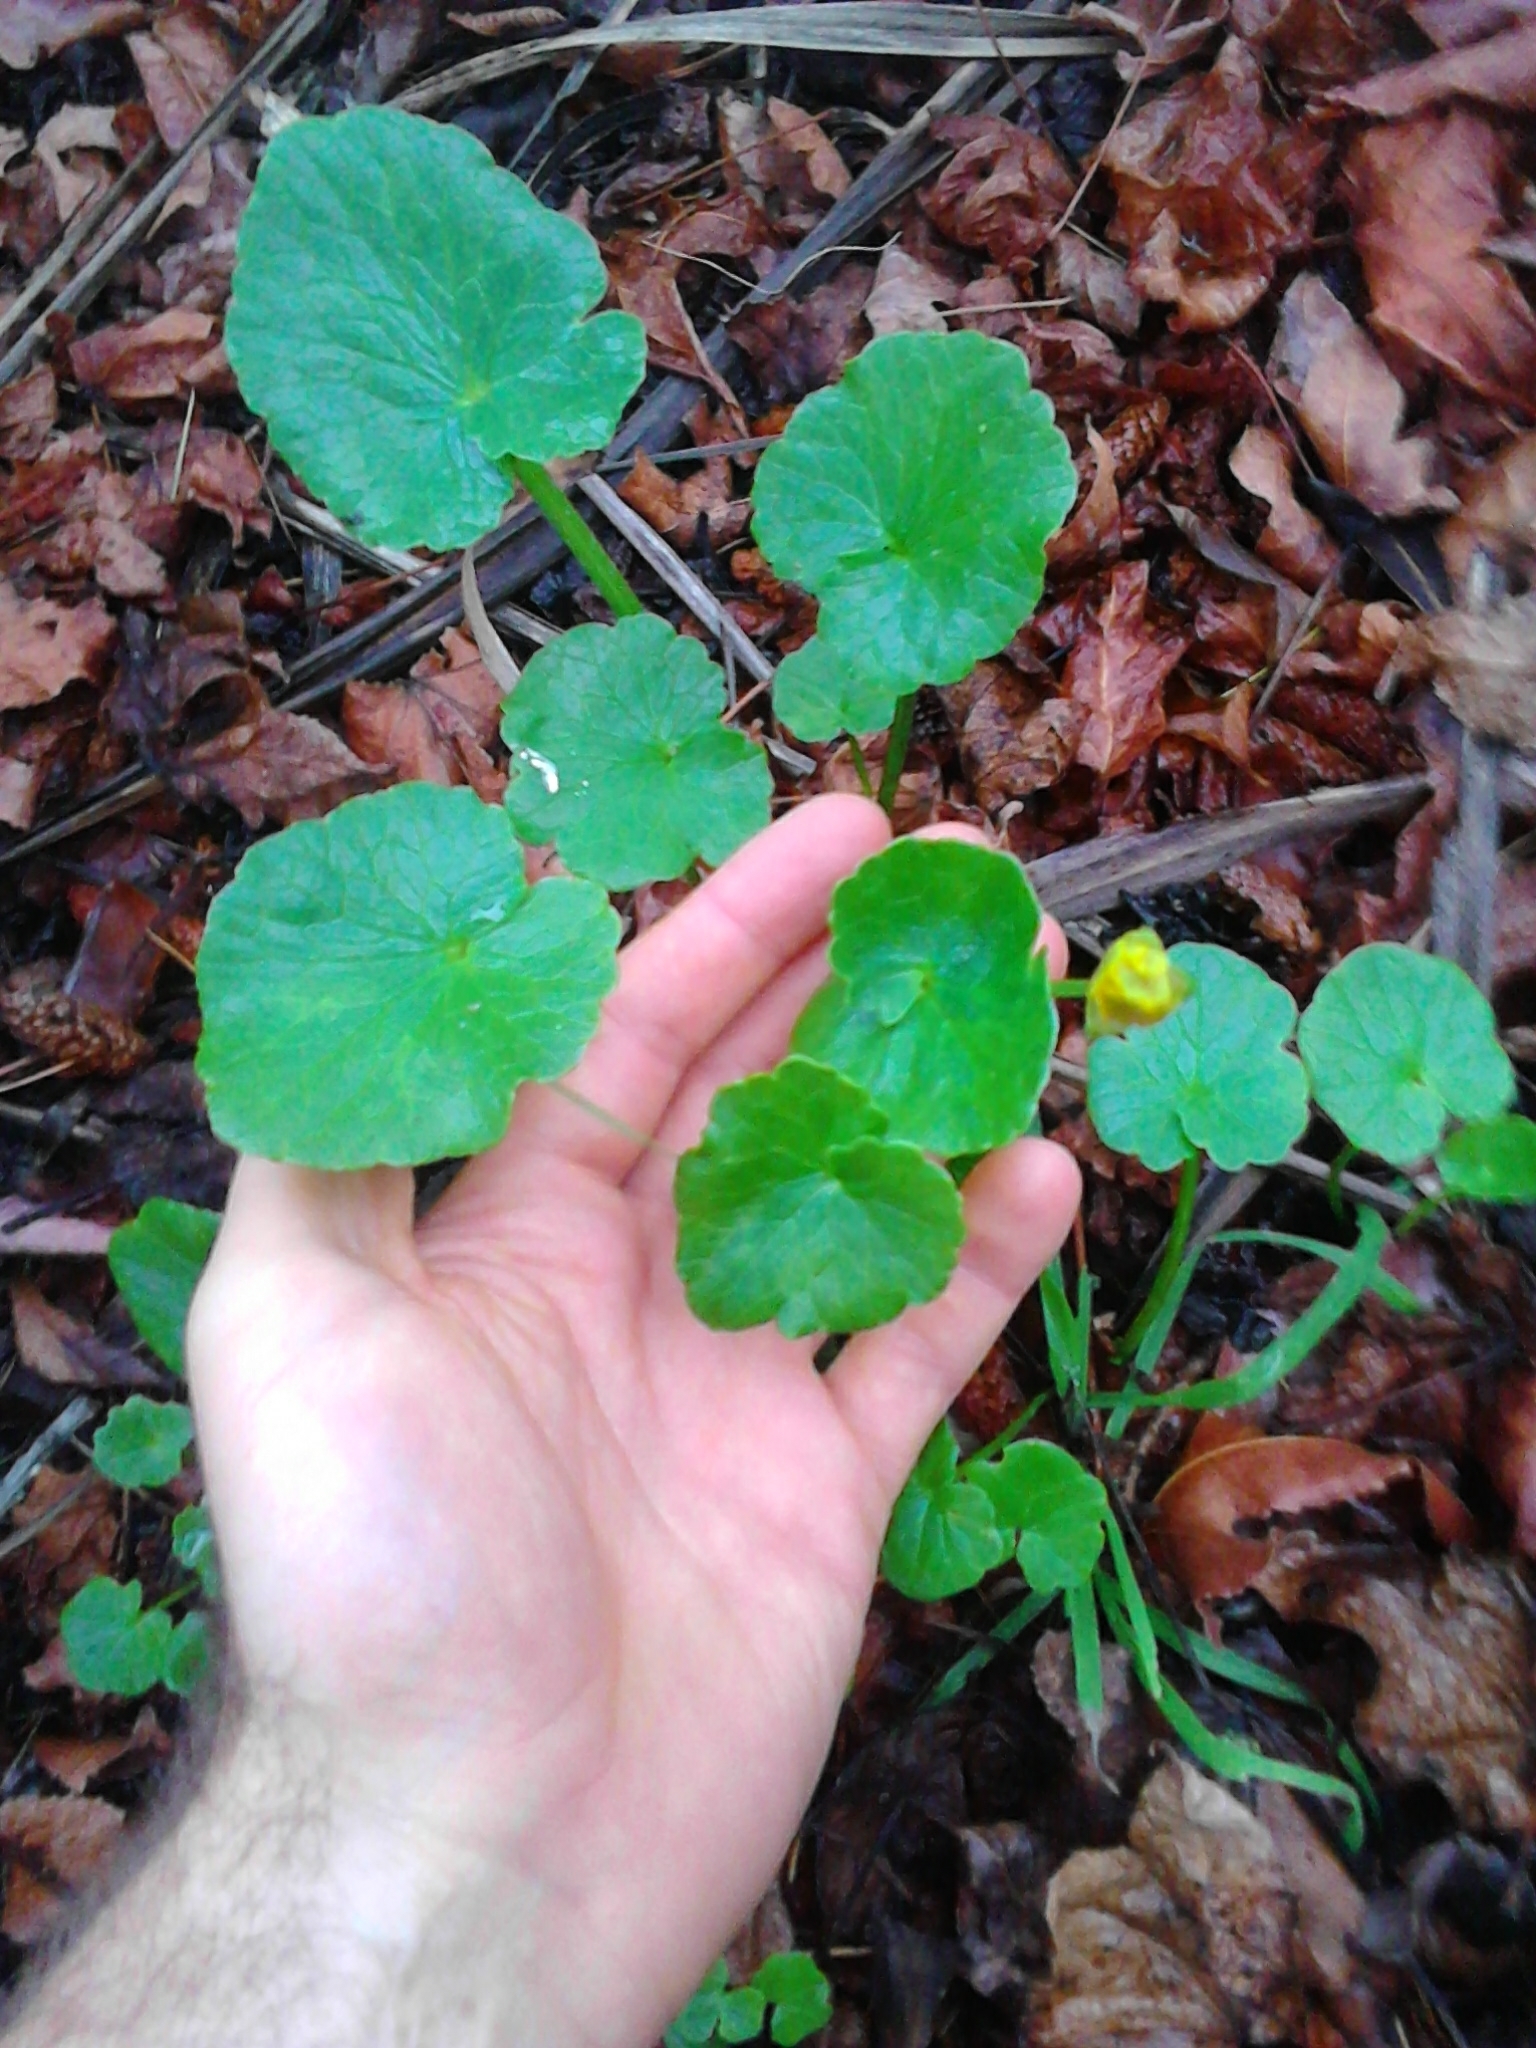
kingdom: Plantae
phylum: Tracheophyta
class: Magnoliopsida
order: Ranunculales
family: Ranunculaceae
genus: Ficaria
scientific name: Ficaria verna
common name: Lesser celandine
